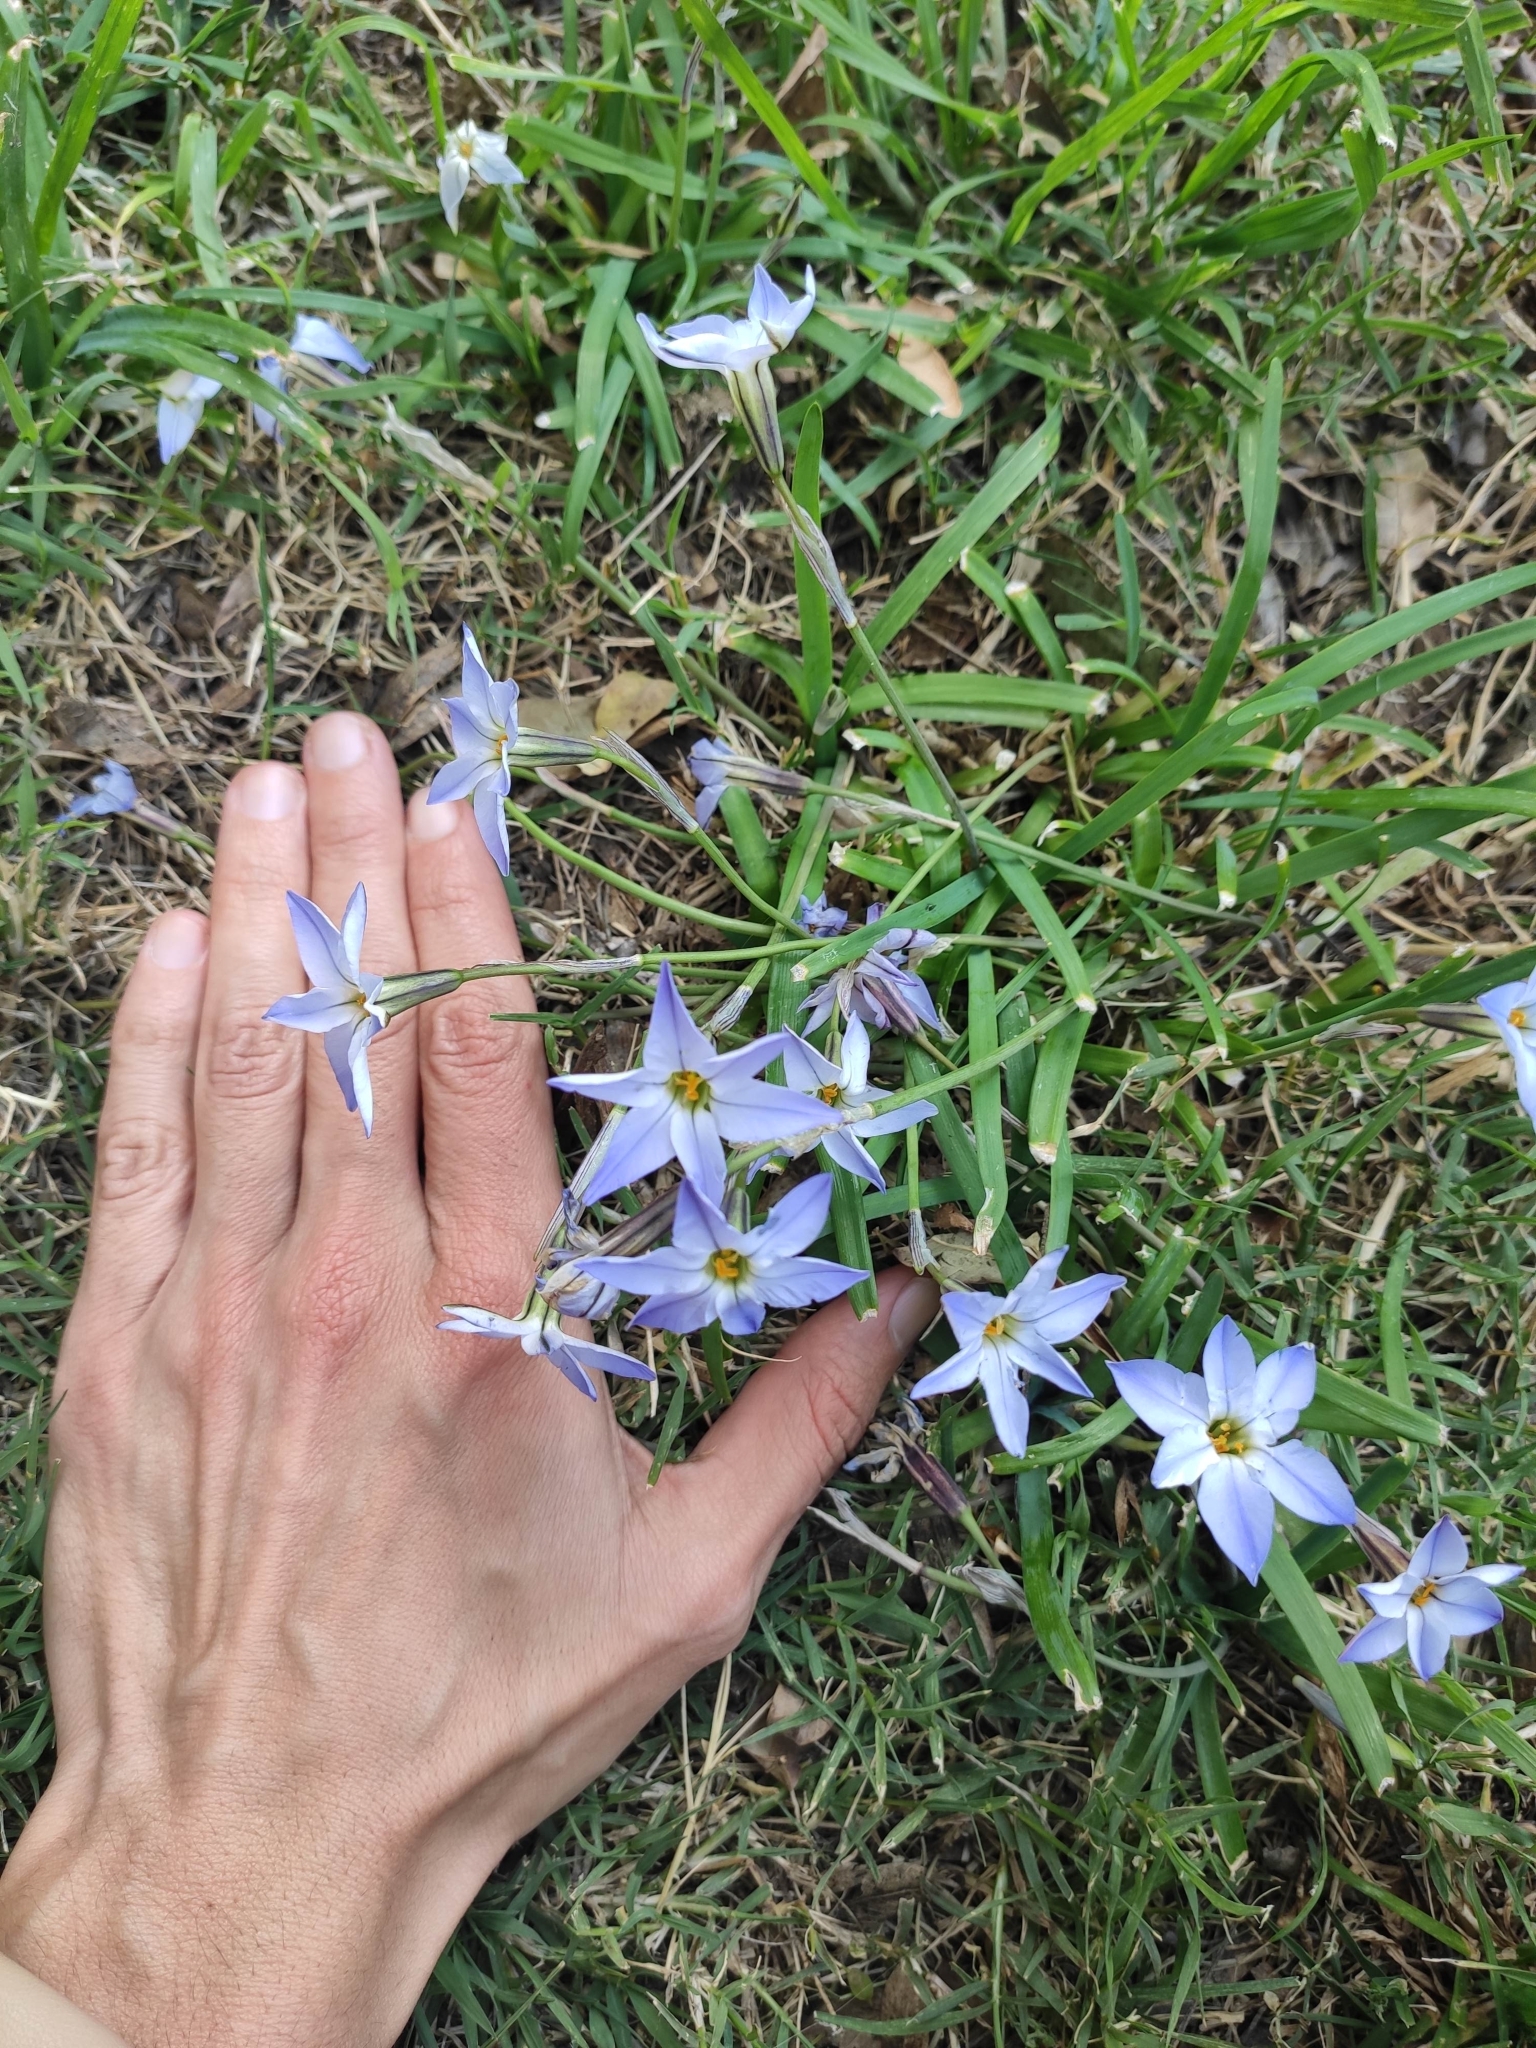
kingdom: Plantae
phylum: Tracheophyta
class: Liliopsida
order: Asparagales
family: Amaryllidaceae
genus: Ipheion
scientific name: Ipheion uniflorum
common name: Spring starflower
